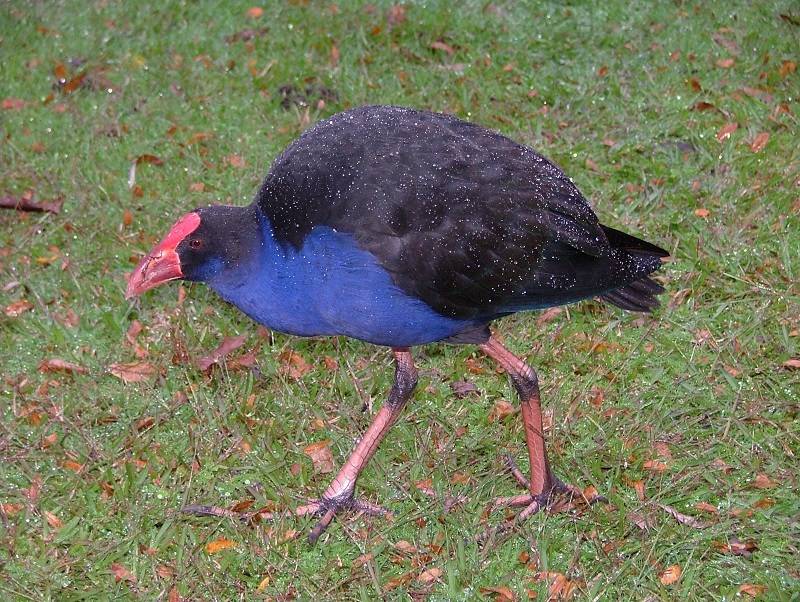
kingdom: Animalia
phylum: Chordata
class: Aves
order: Gruiformes
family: Rallidae
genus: Porphyrio
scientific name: Porphyrio melanotus
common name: Australasian swamphen
